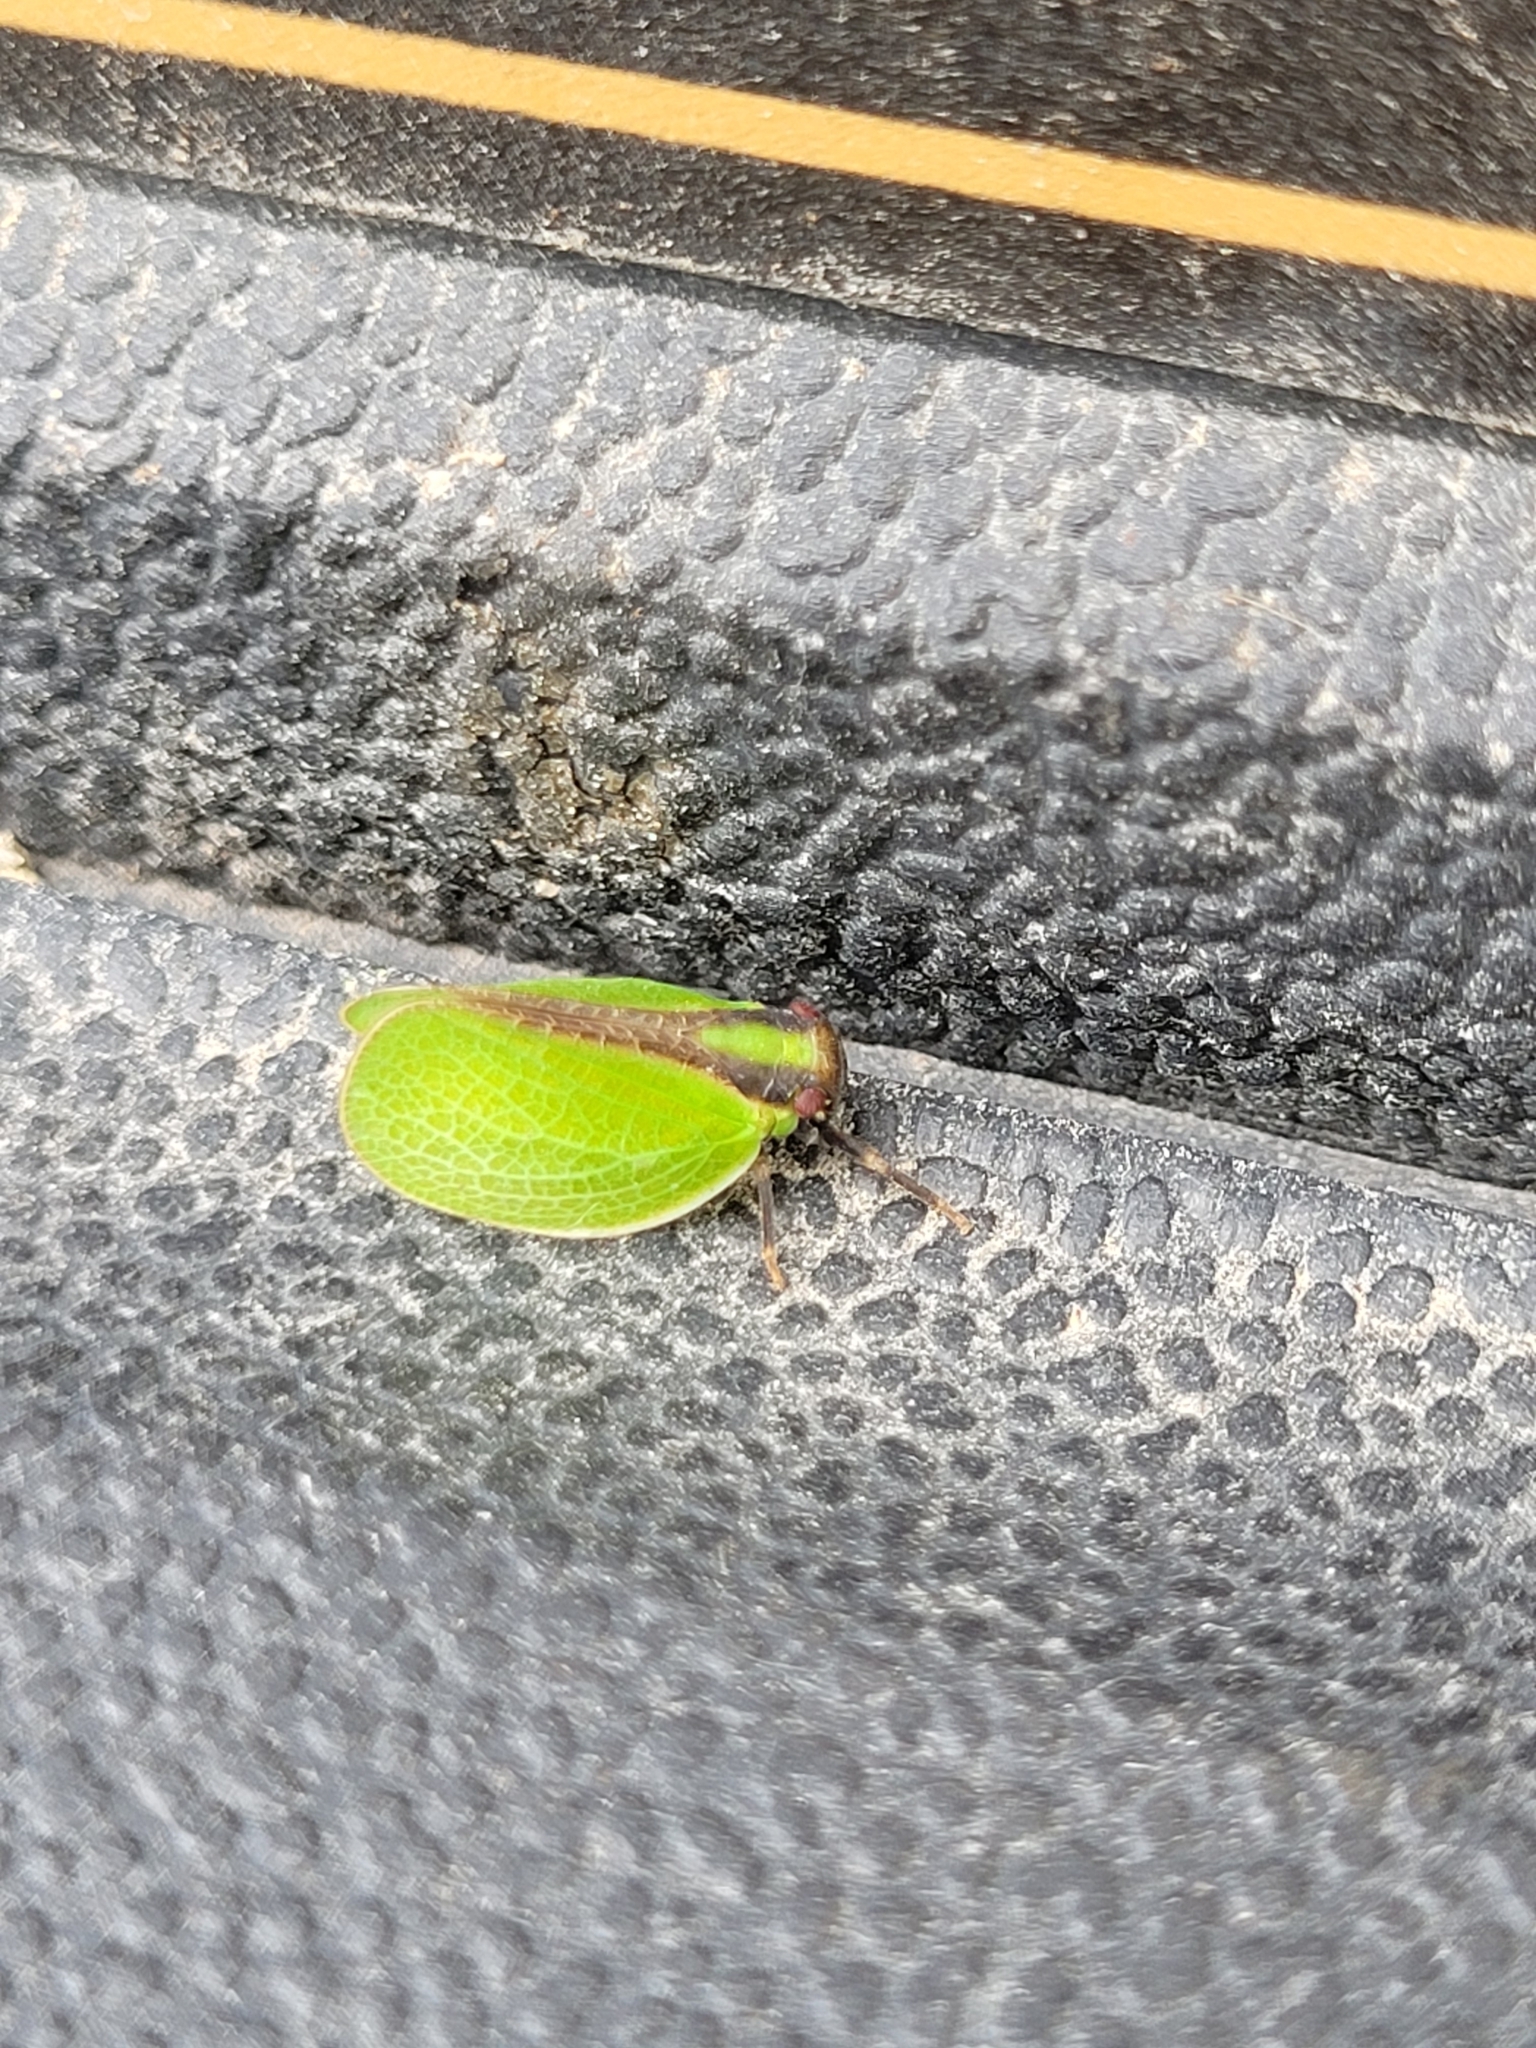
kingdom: Animalia
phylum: Arthropoda
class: Insecta
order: Hemiptera
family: Acanaloniidae
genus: Acanalonia
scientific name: Acanalonia bivittata
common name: Two-striped planthopper
